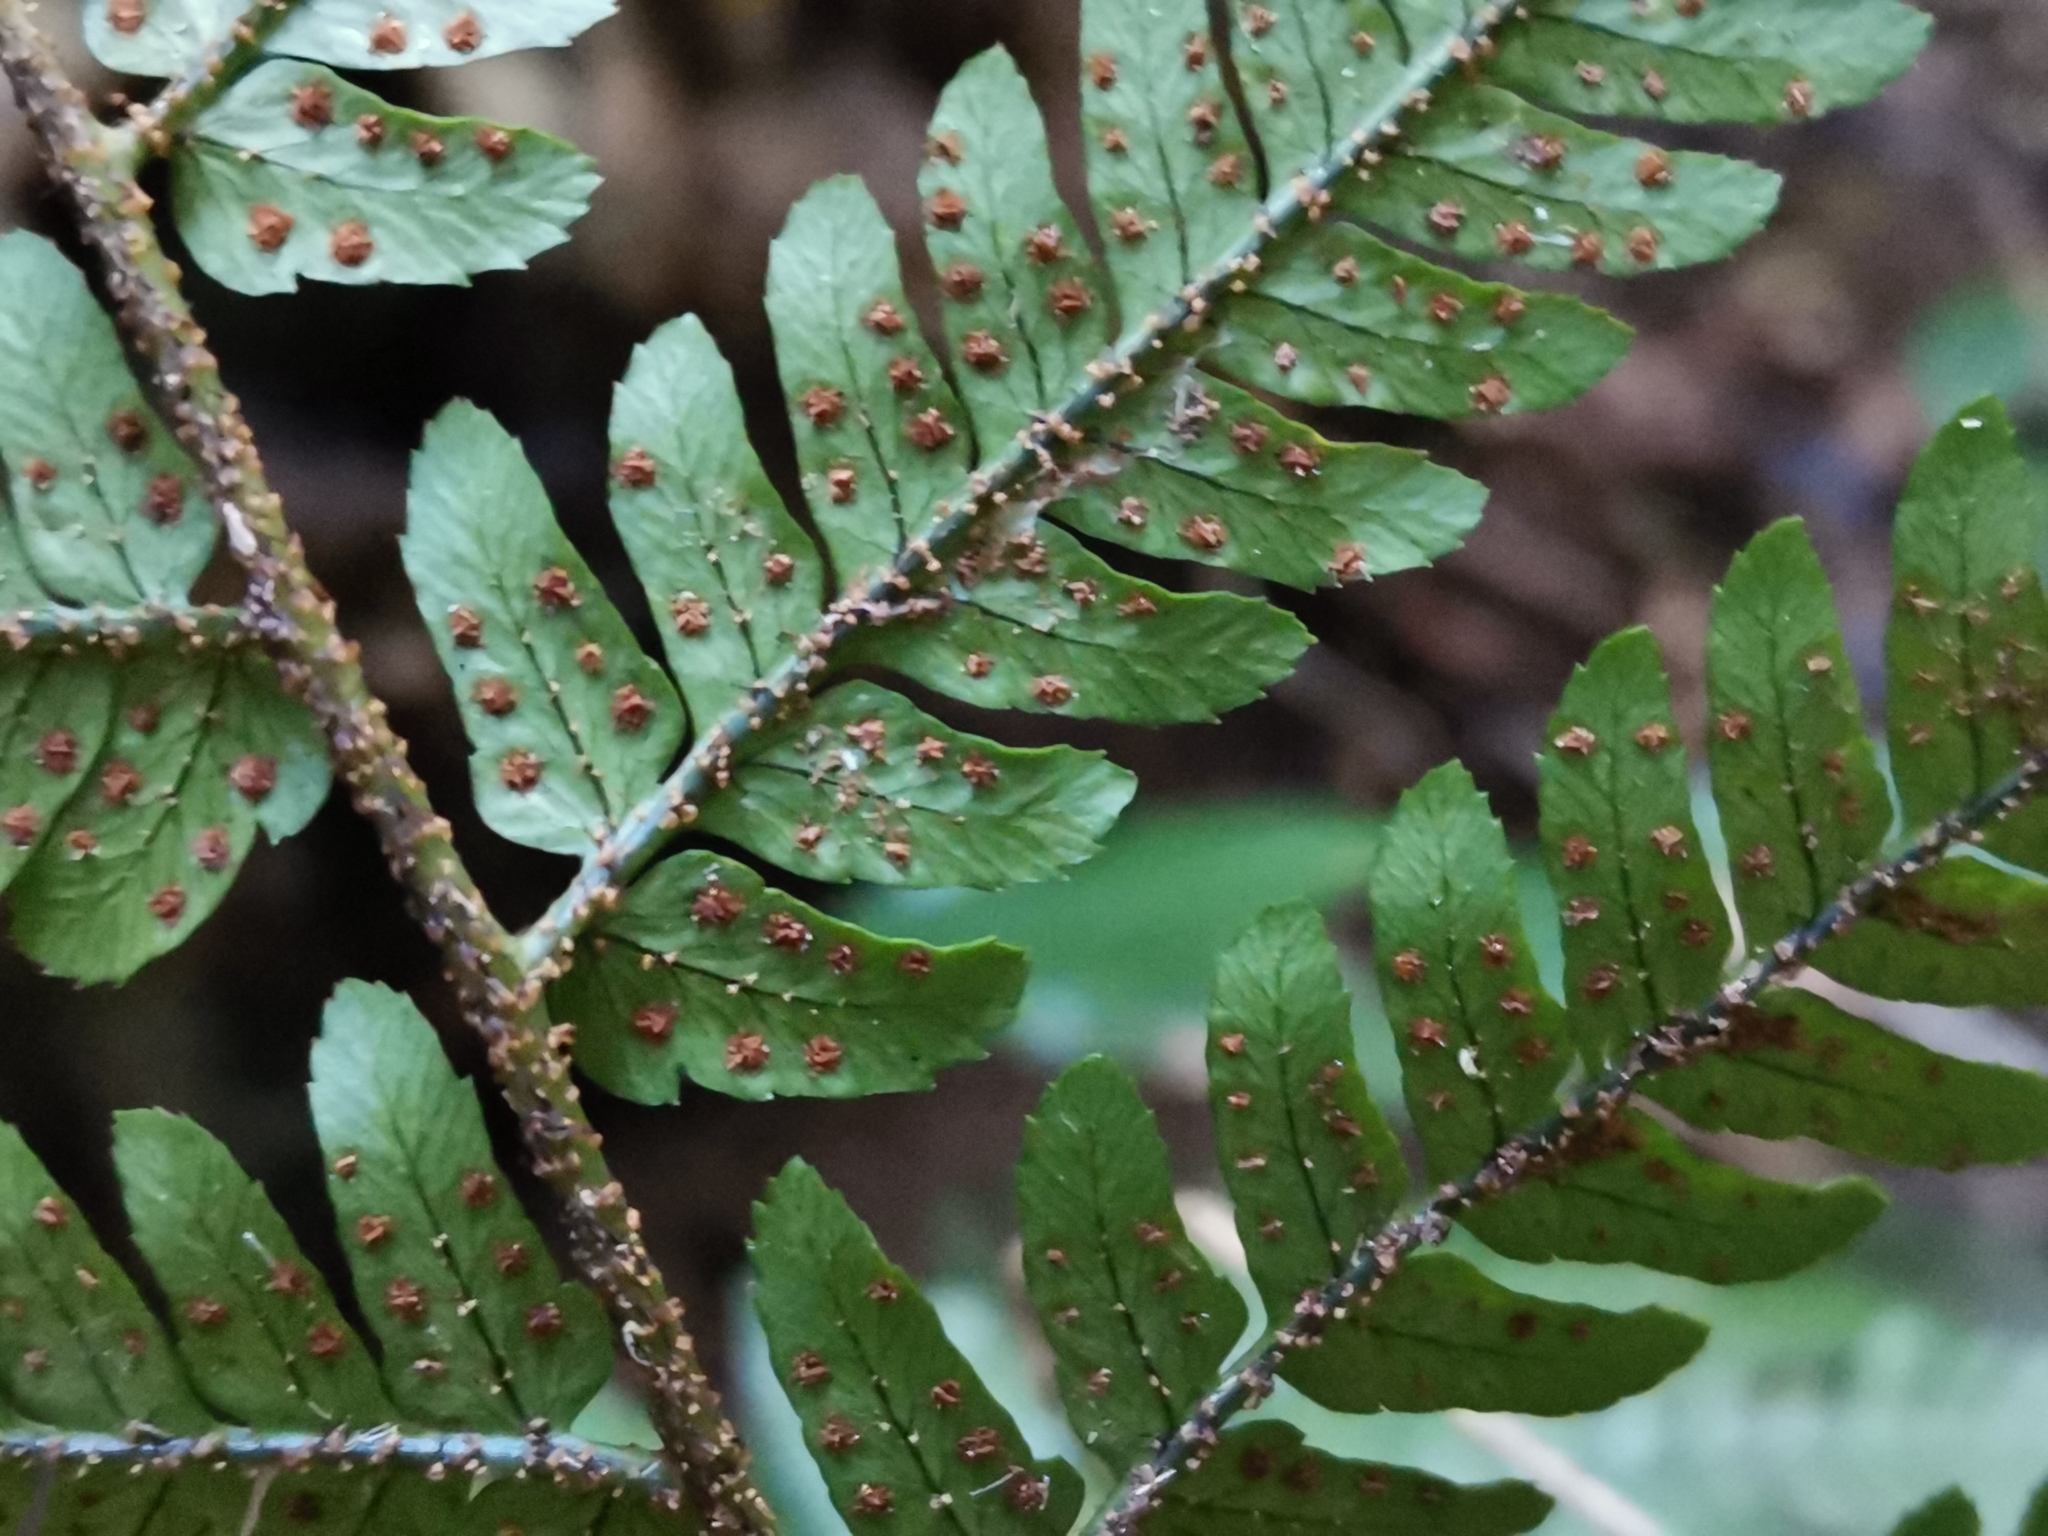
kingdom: Plantae
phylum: Tracheophyta
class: Polypodiopsida
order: Polypodiales
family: Dryopteridaceae
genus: Dryopteris
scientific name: Dryopteris nipponensis
